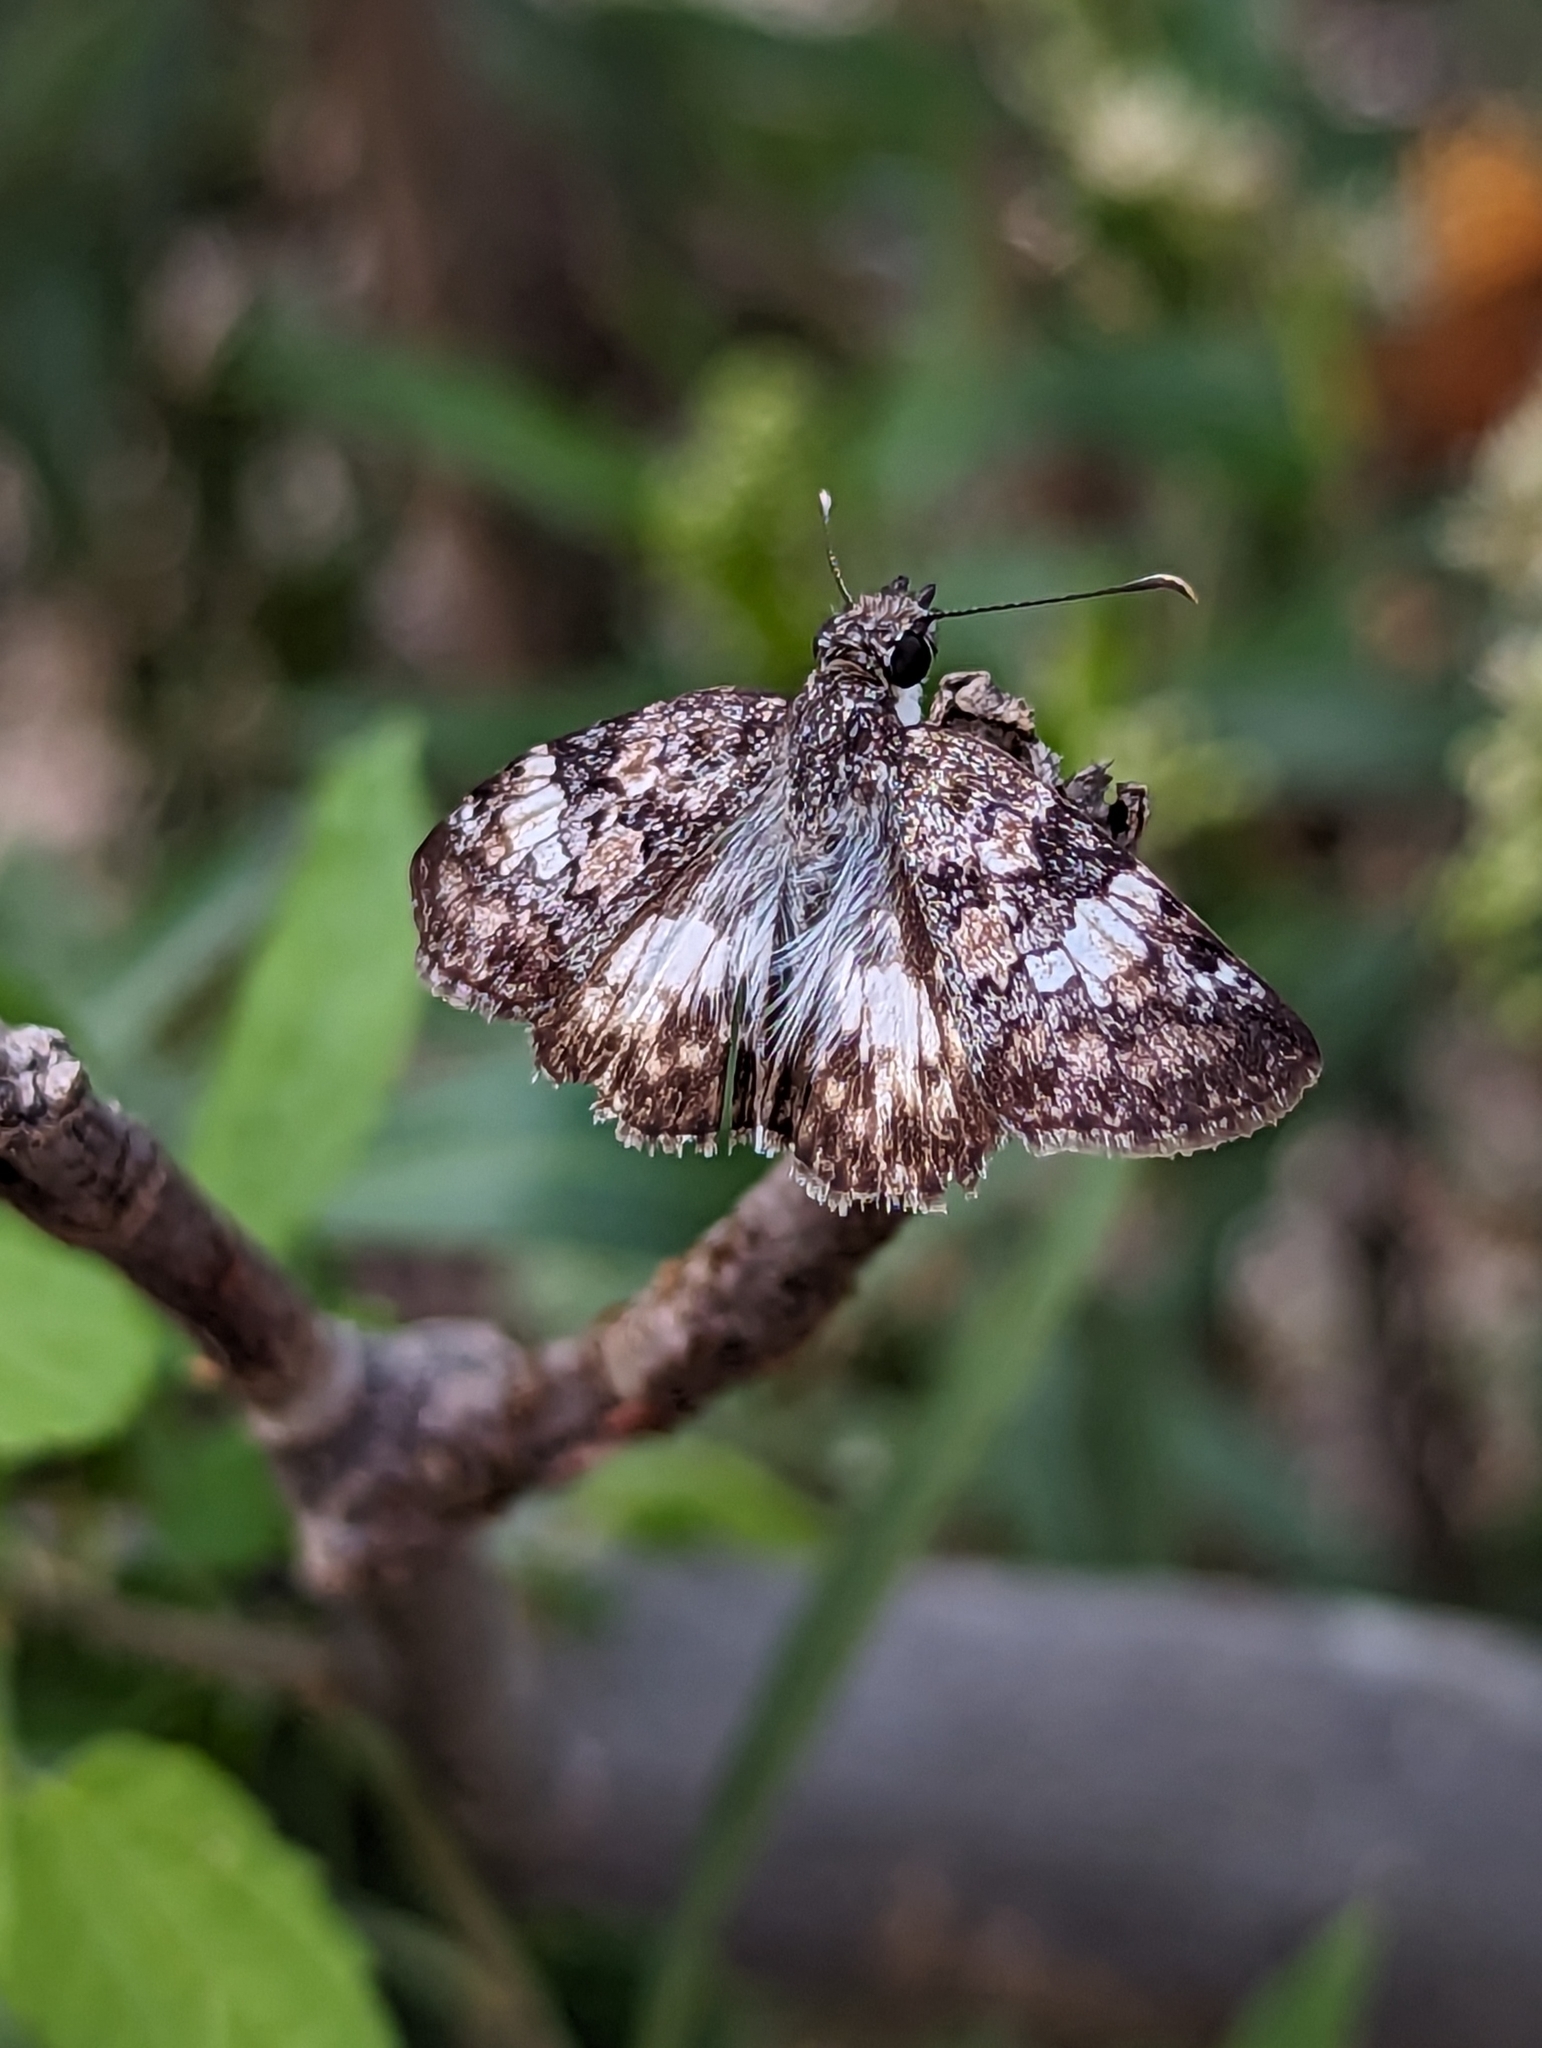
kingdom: Animalia
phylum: Arthropoda
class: Insecta
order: Lepidoptera
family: Hesperiidae
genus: Chiothion
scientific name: Chiothion georgina
